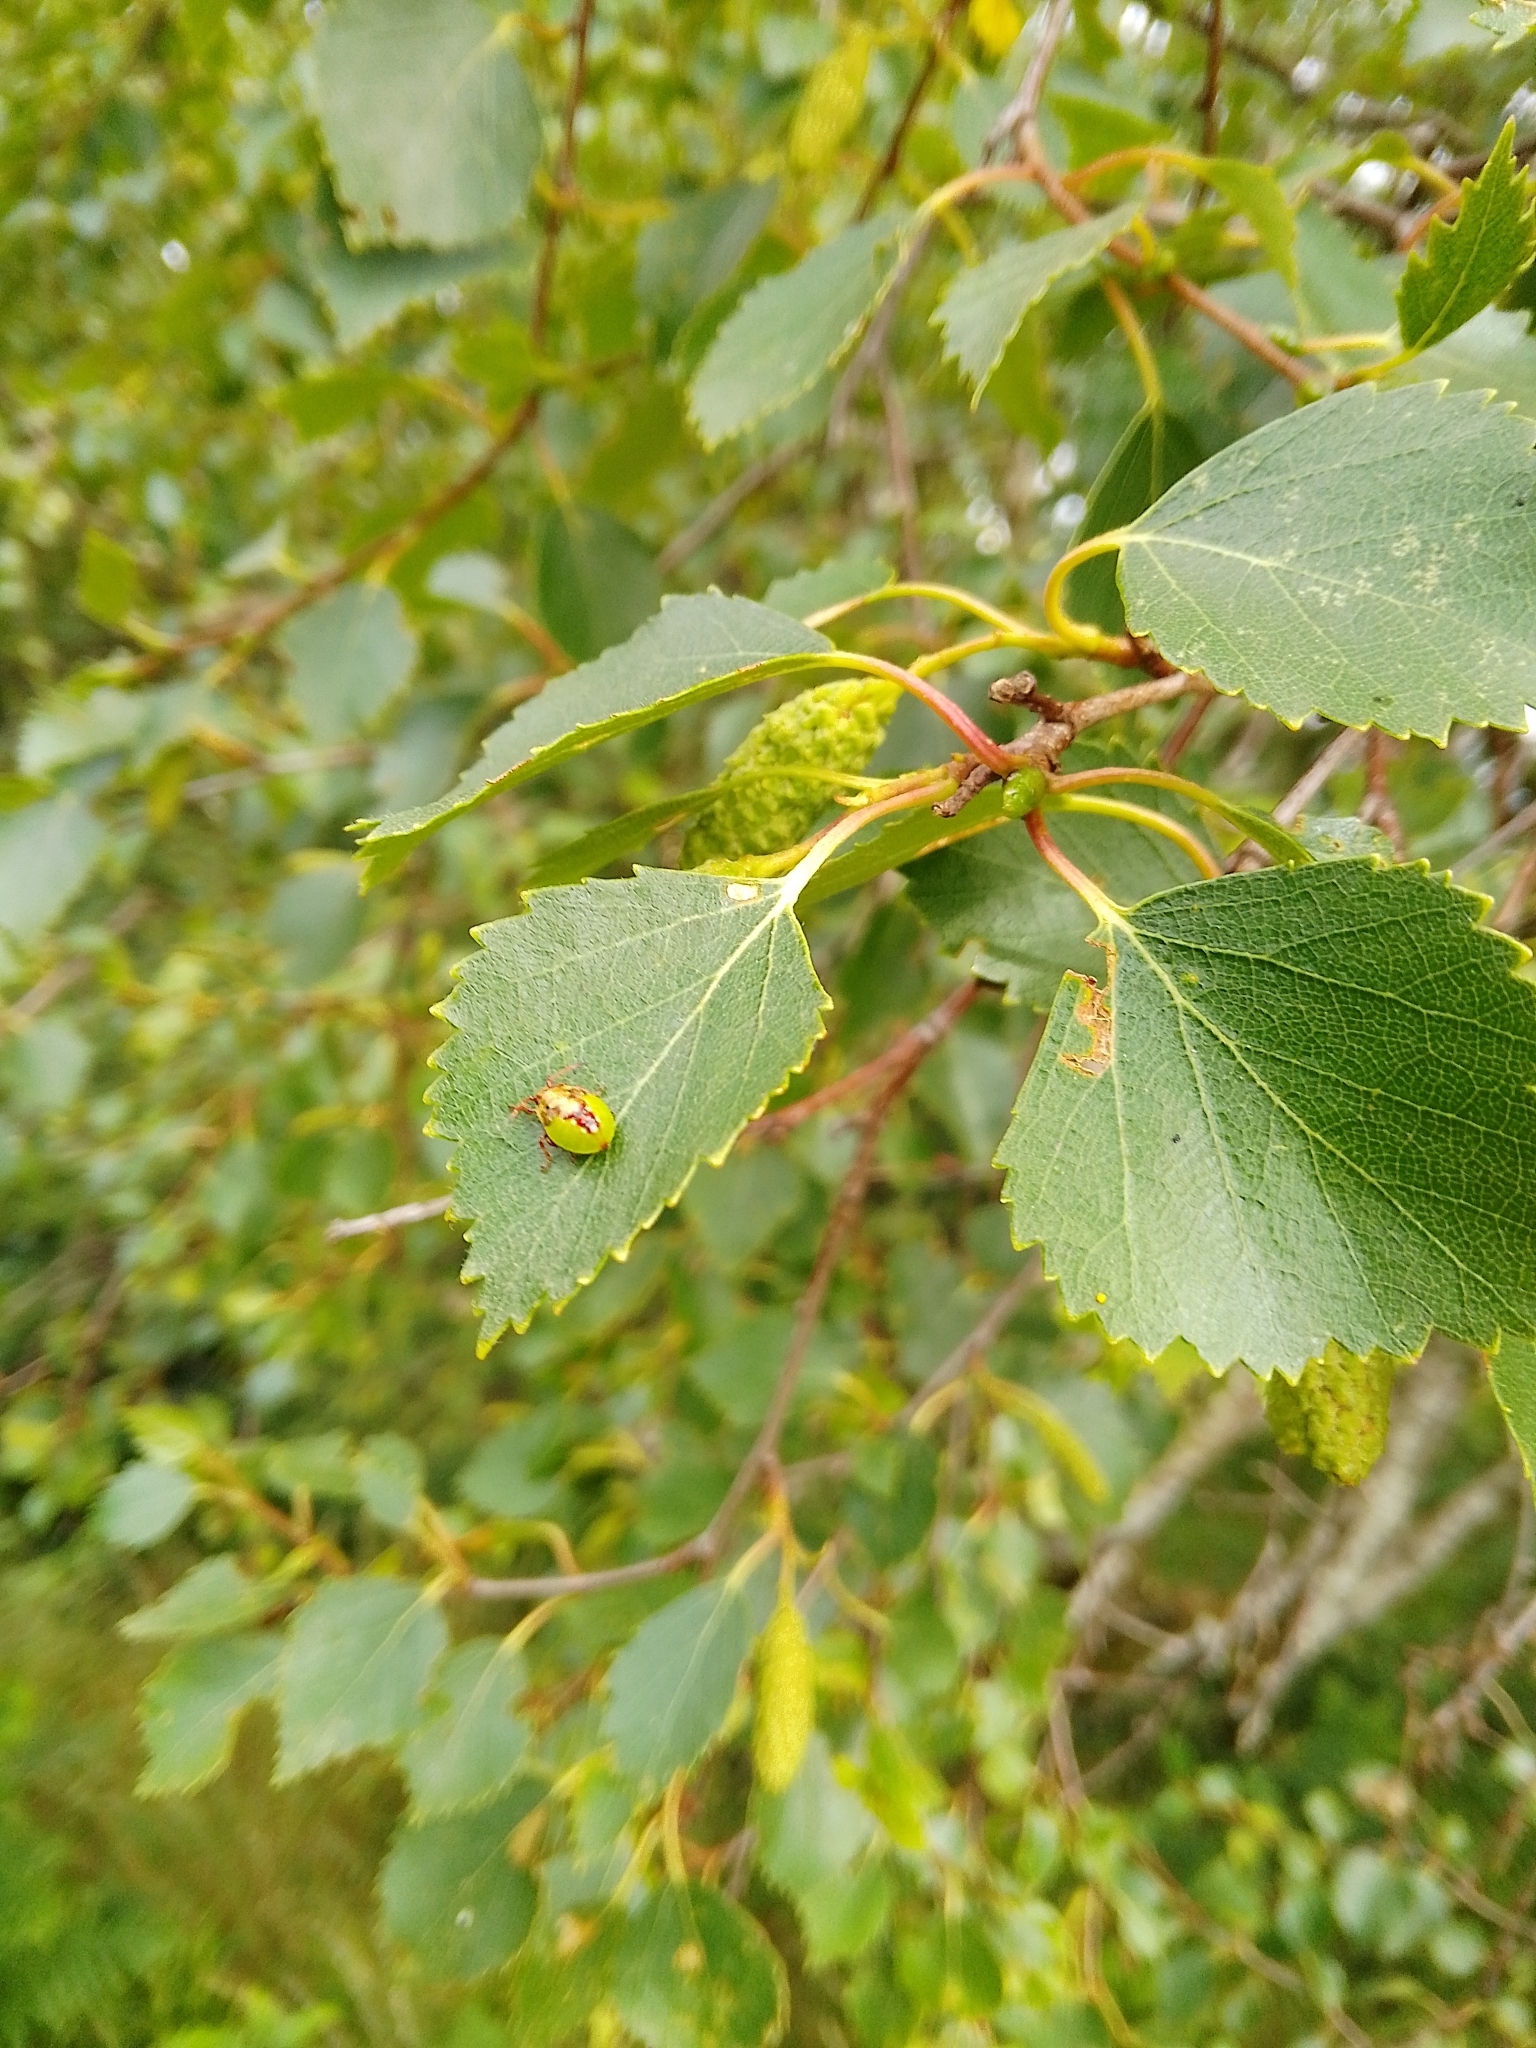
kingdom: Animalia
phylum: Arthropoda
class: Insecta
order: Hemiptera
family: Acanthosomatidae
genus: Elasmostethus
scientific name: Elasmostethus interstinctus
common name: Birch shieldbug
